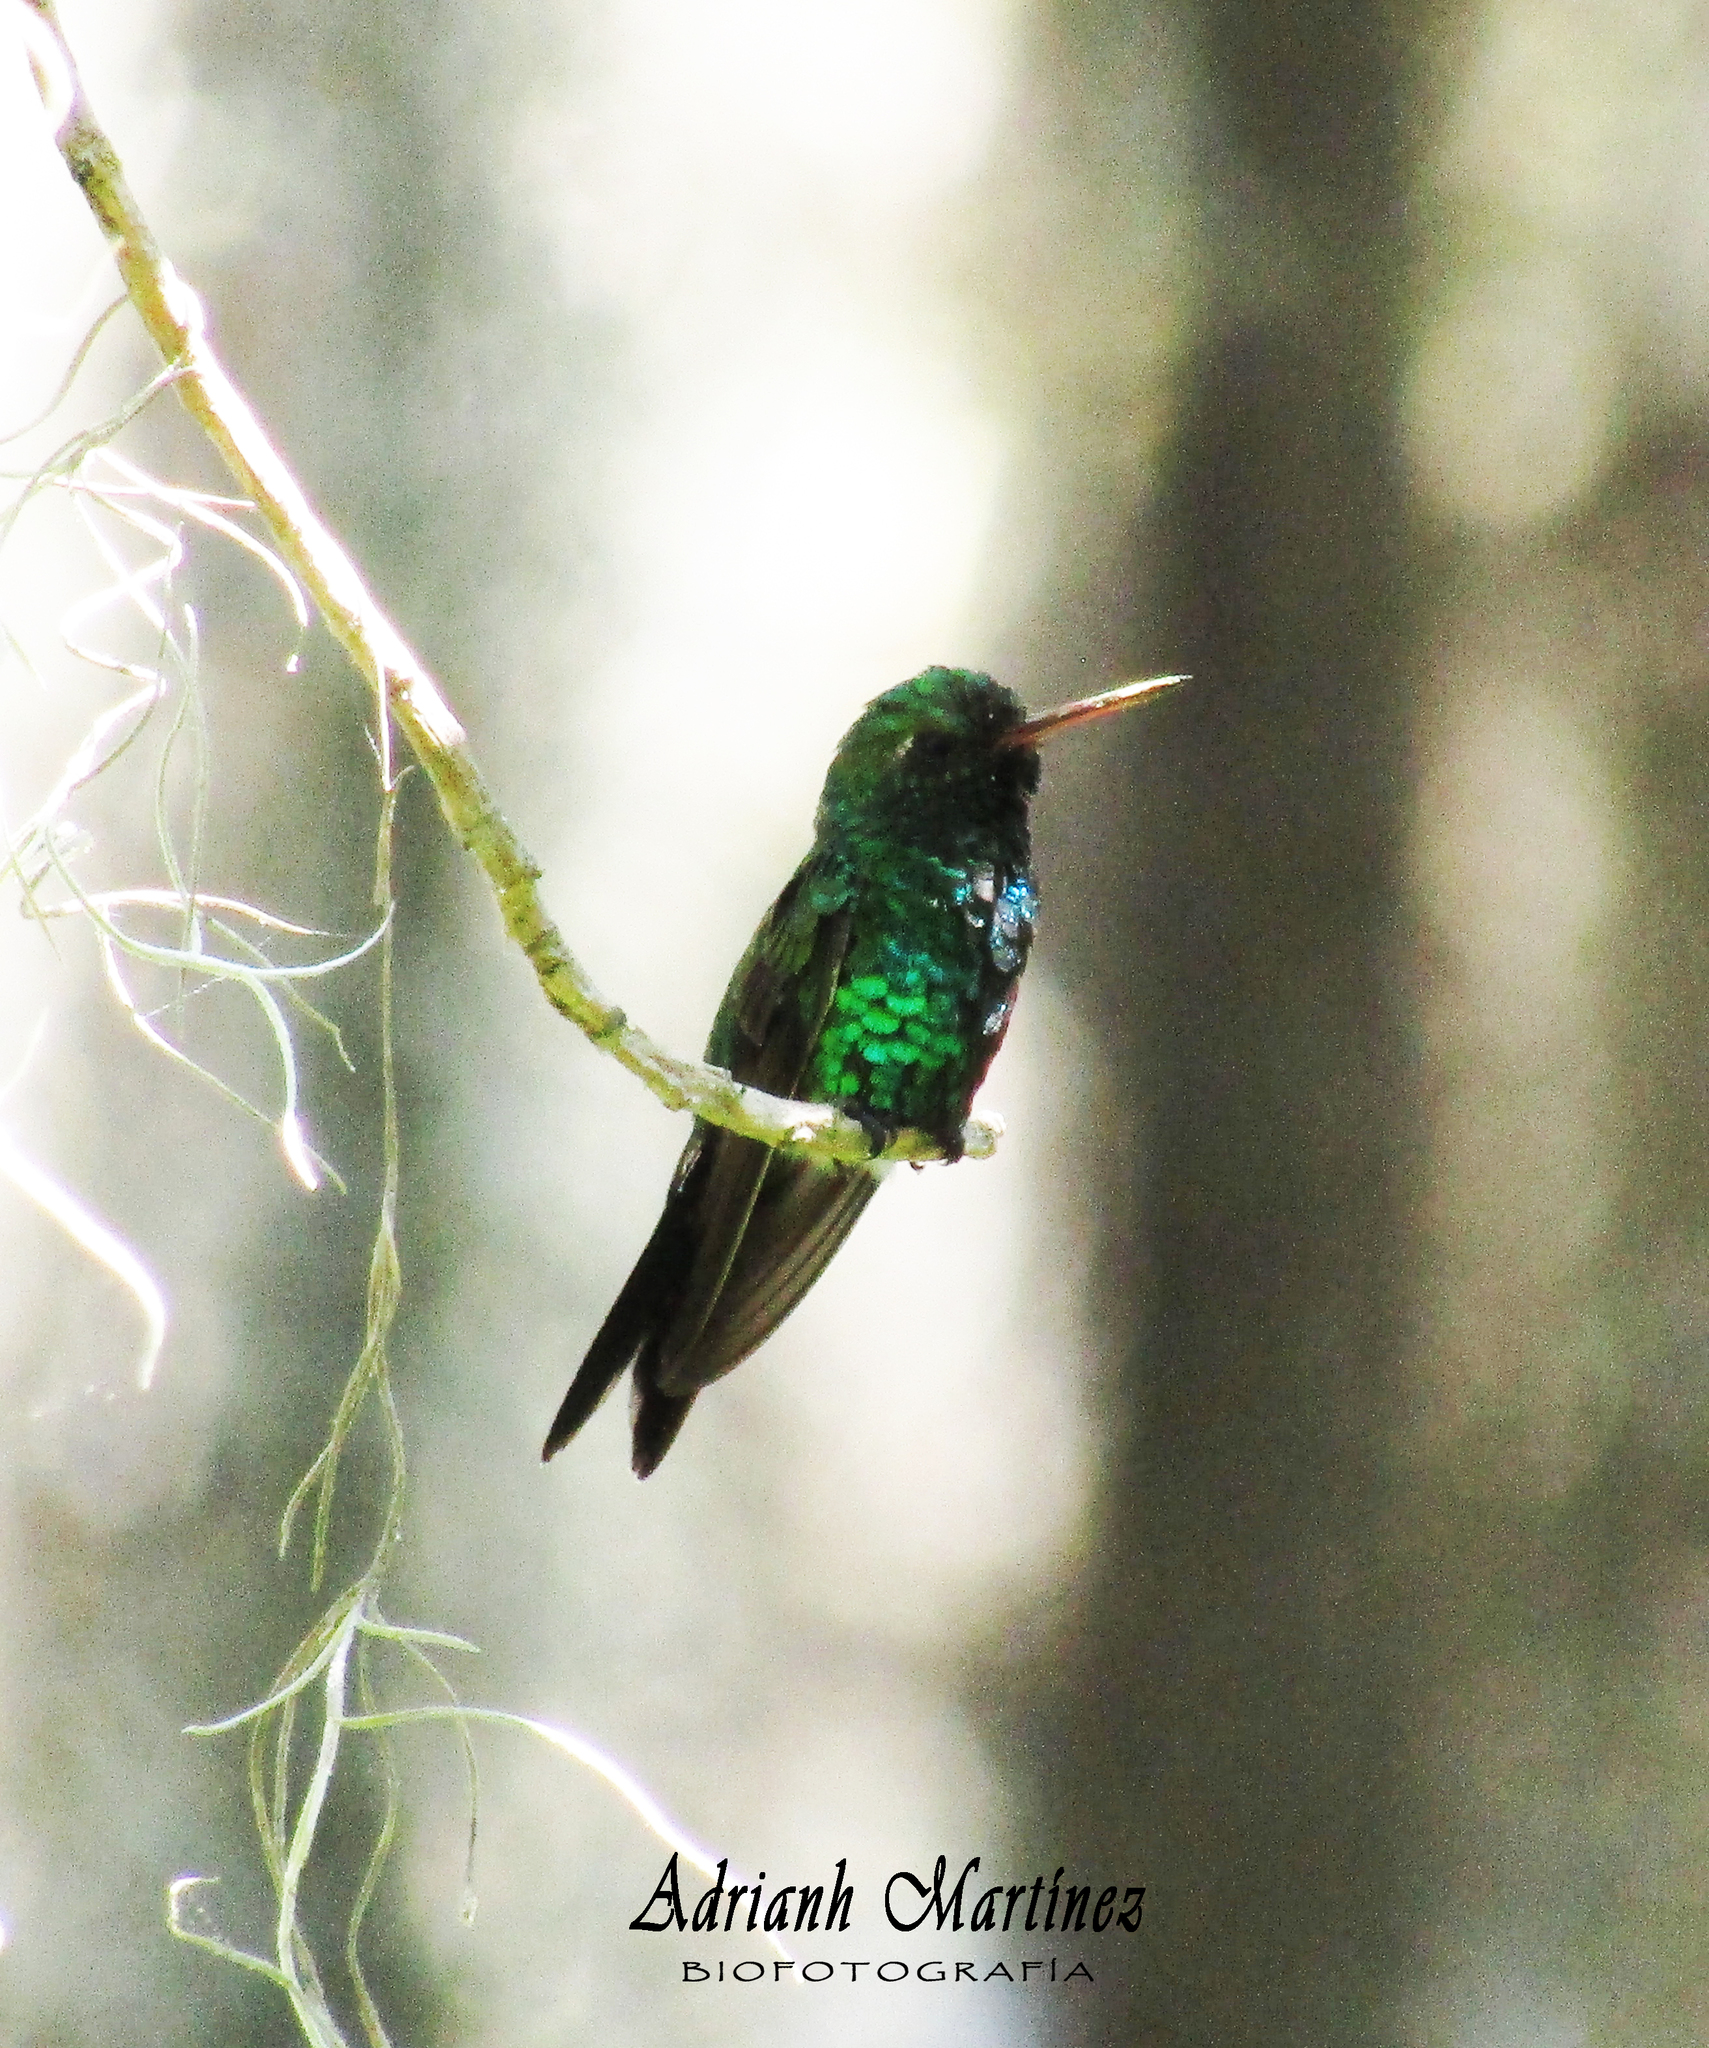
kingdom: Animalia
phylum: Chordata
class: Aves
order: Apodiformes
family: Trochilidae
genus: Cynanthus
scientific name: Cynanthus canivetii
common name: Canivet's emerald
